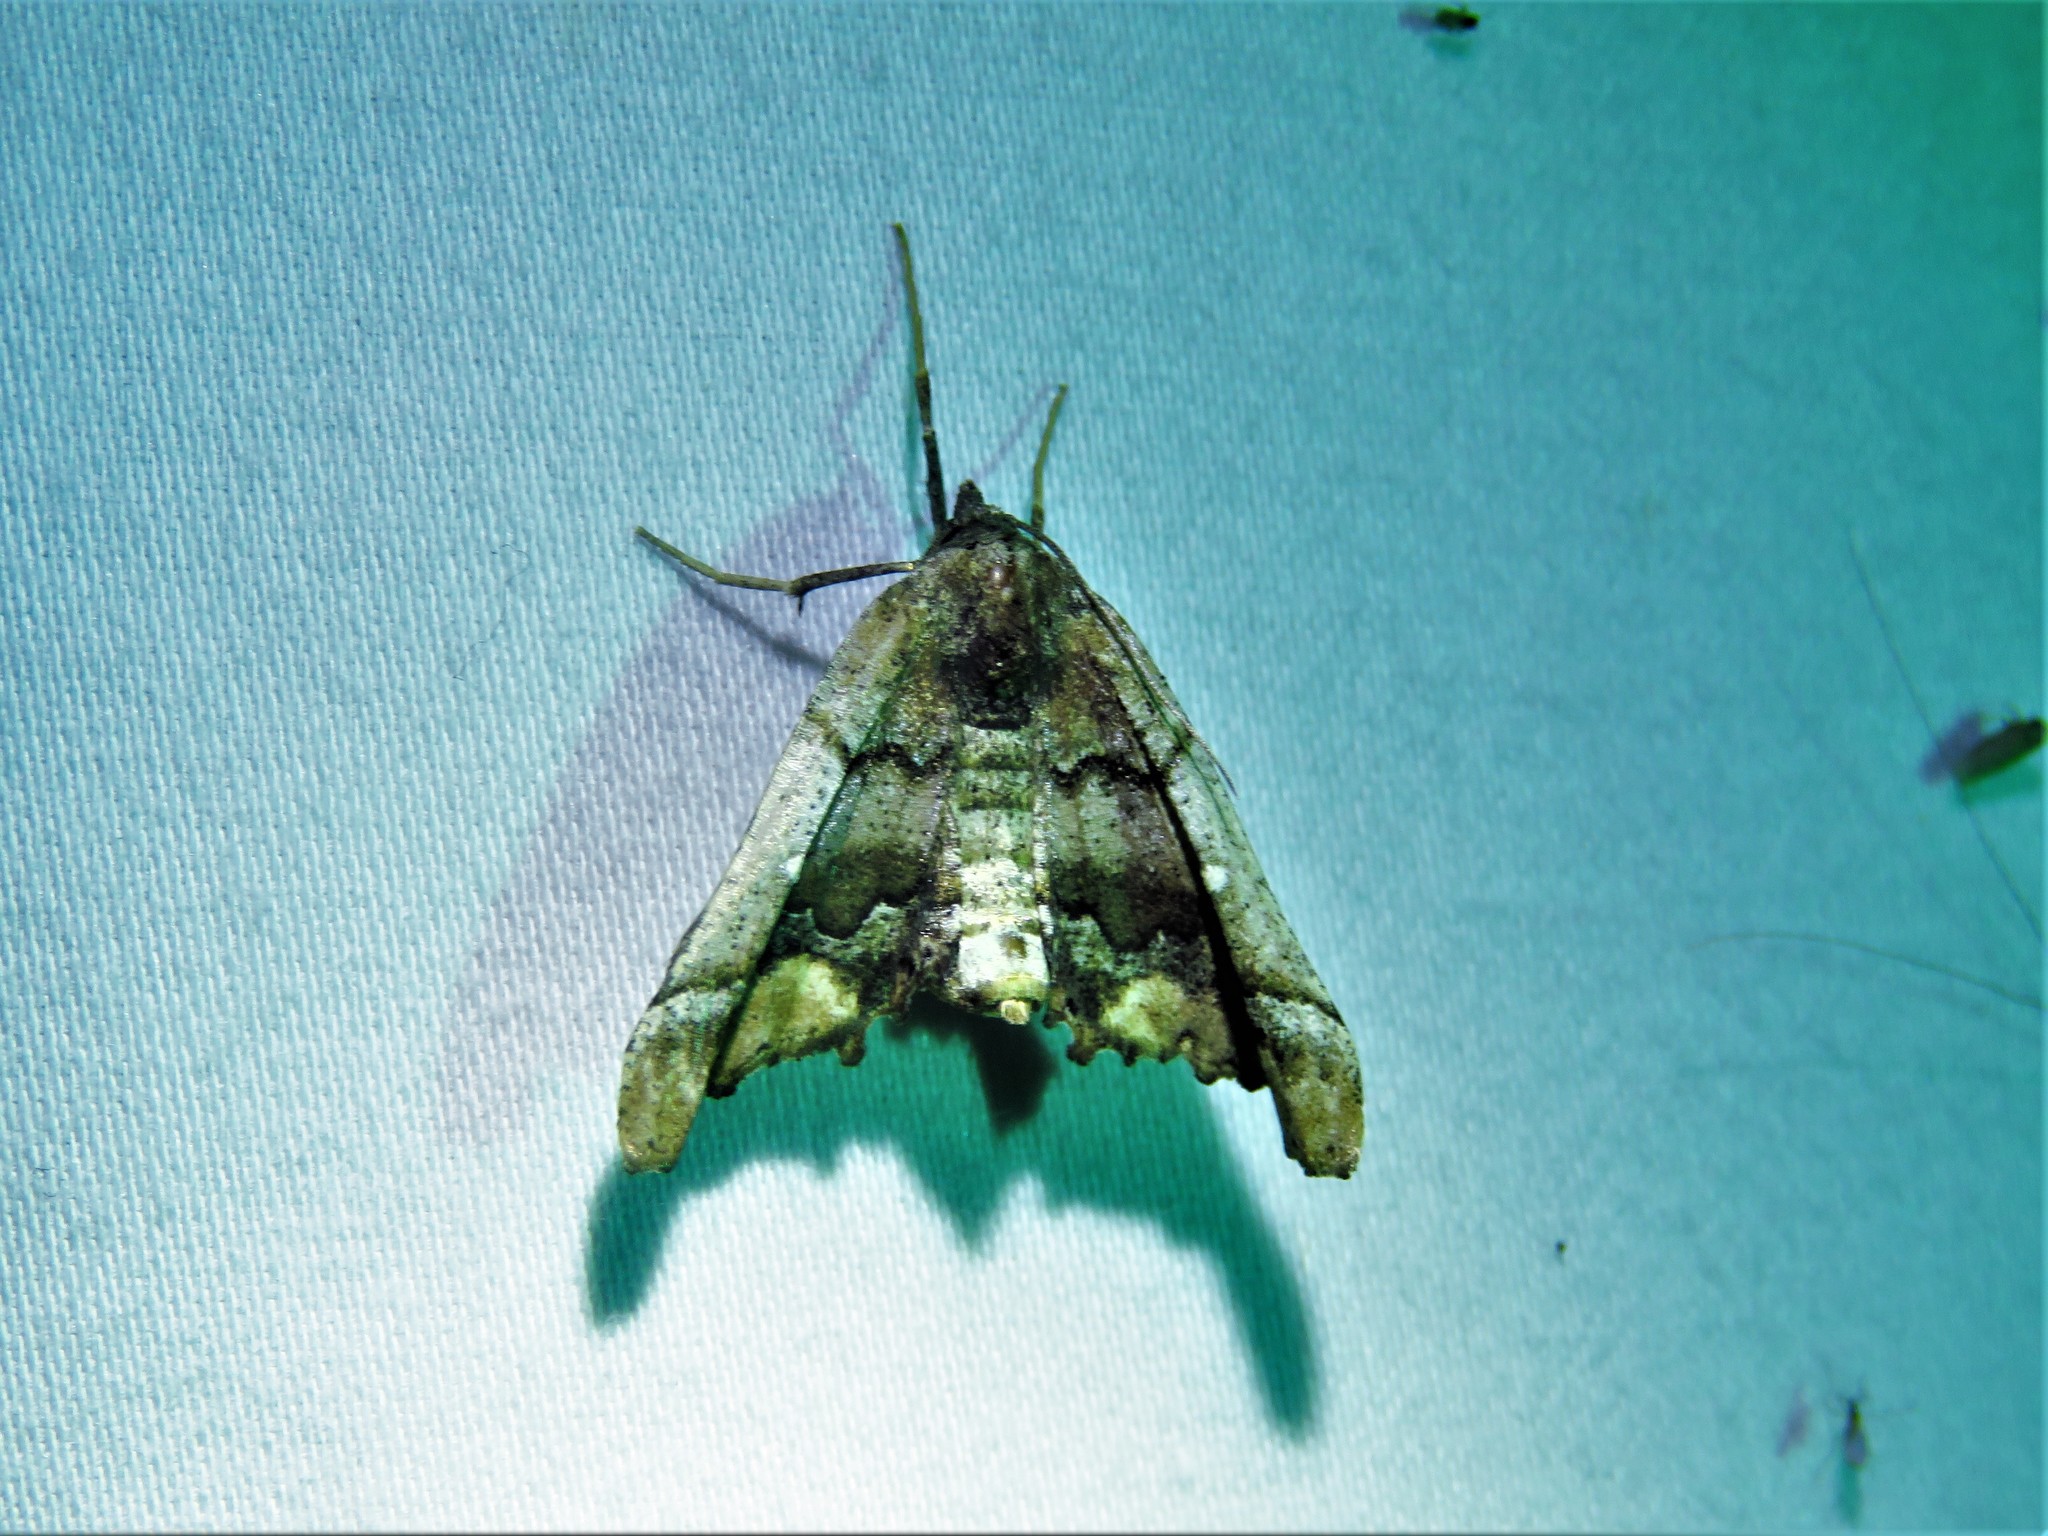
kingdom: Animalia
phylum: Arthropoda
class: Insecta
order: Lepidoptera
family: Geometridae
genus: Pero
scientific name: Pero meskaria
